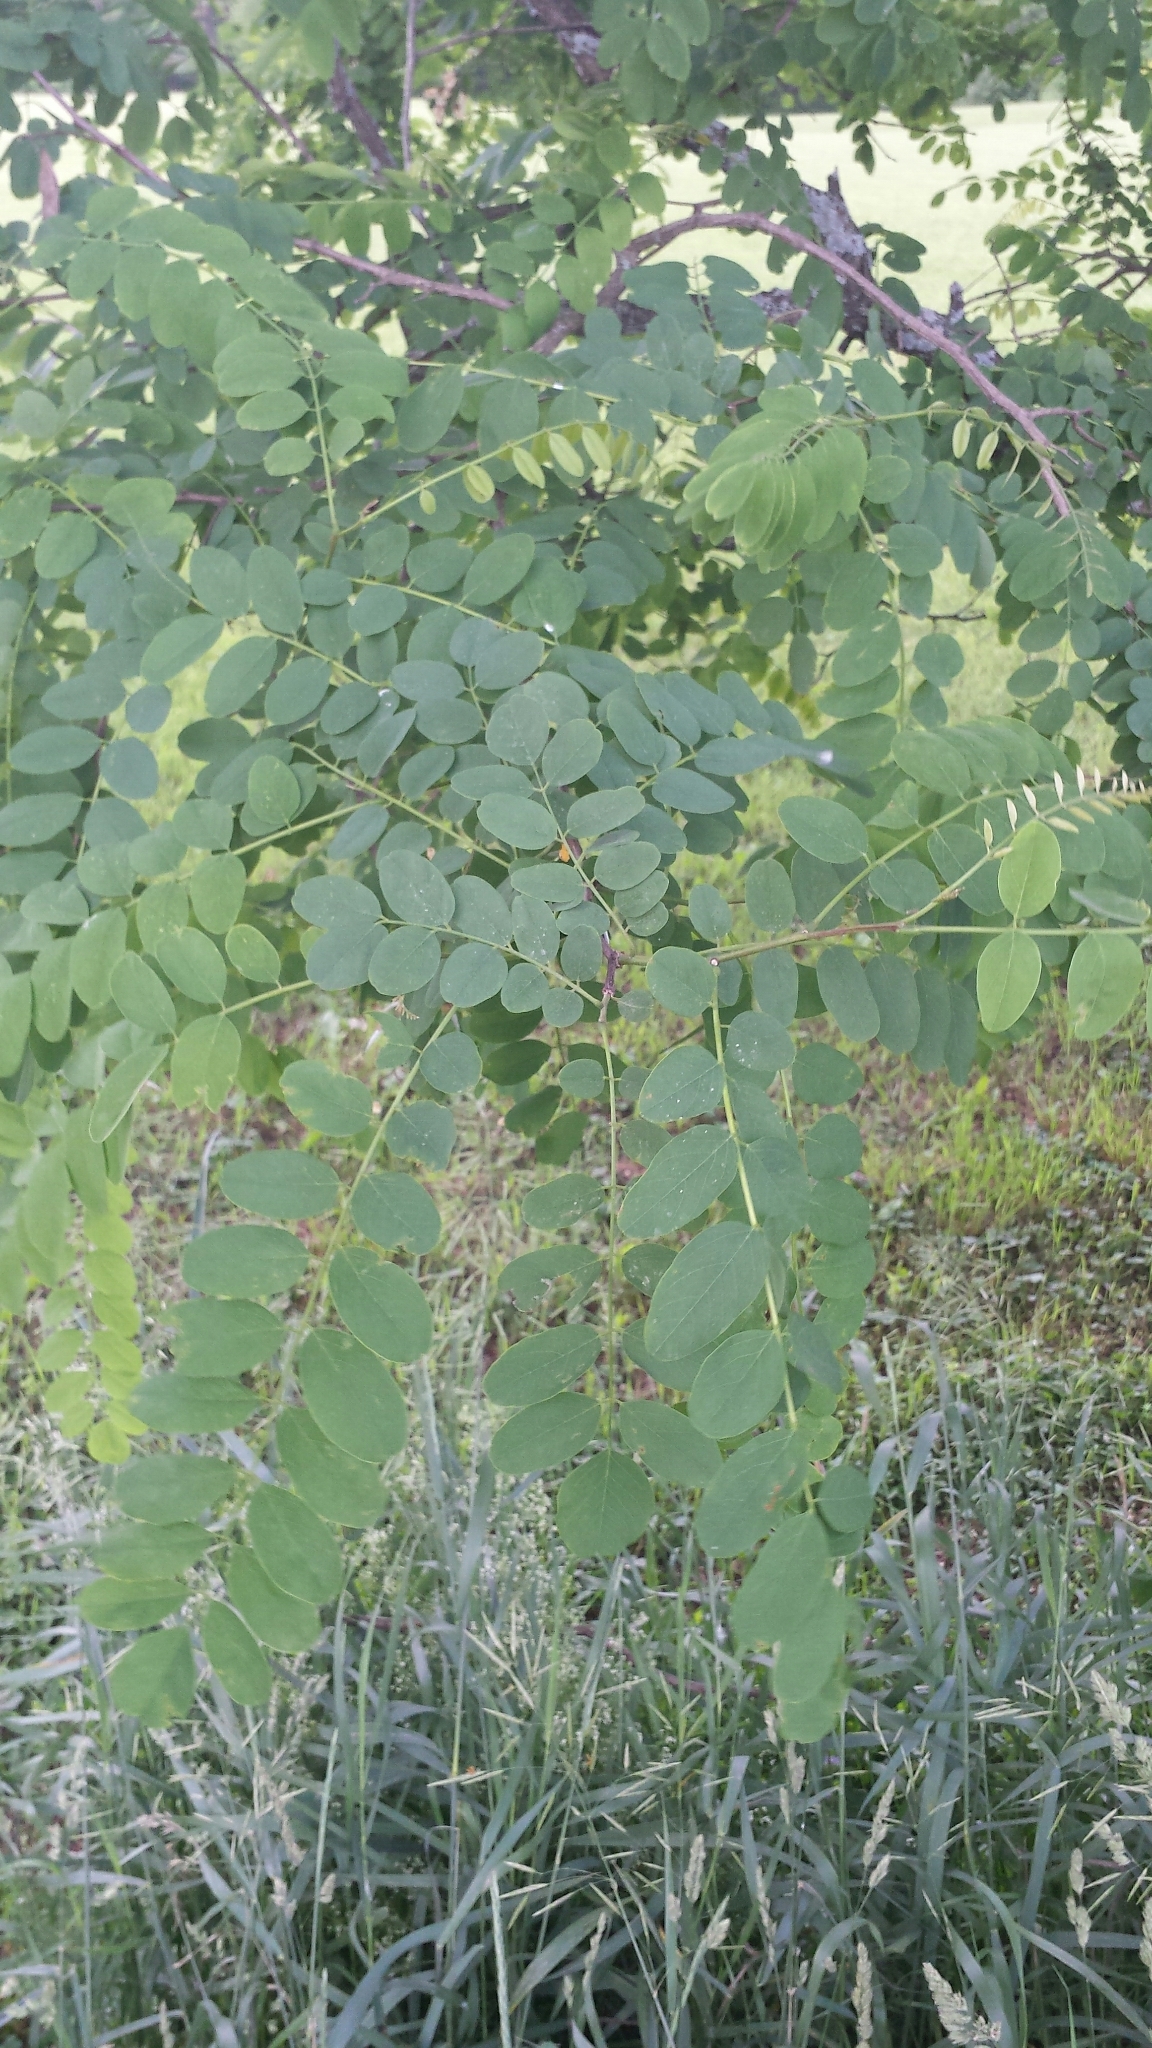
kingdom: Plantae
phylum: Tracheophyta
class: Magnoliopsida
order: Fabales
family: Fabaceae
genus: Robinia
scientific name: Robinia pseudoacacia
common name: Black locust
